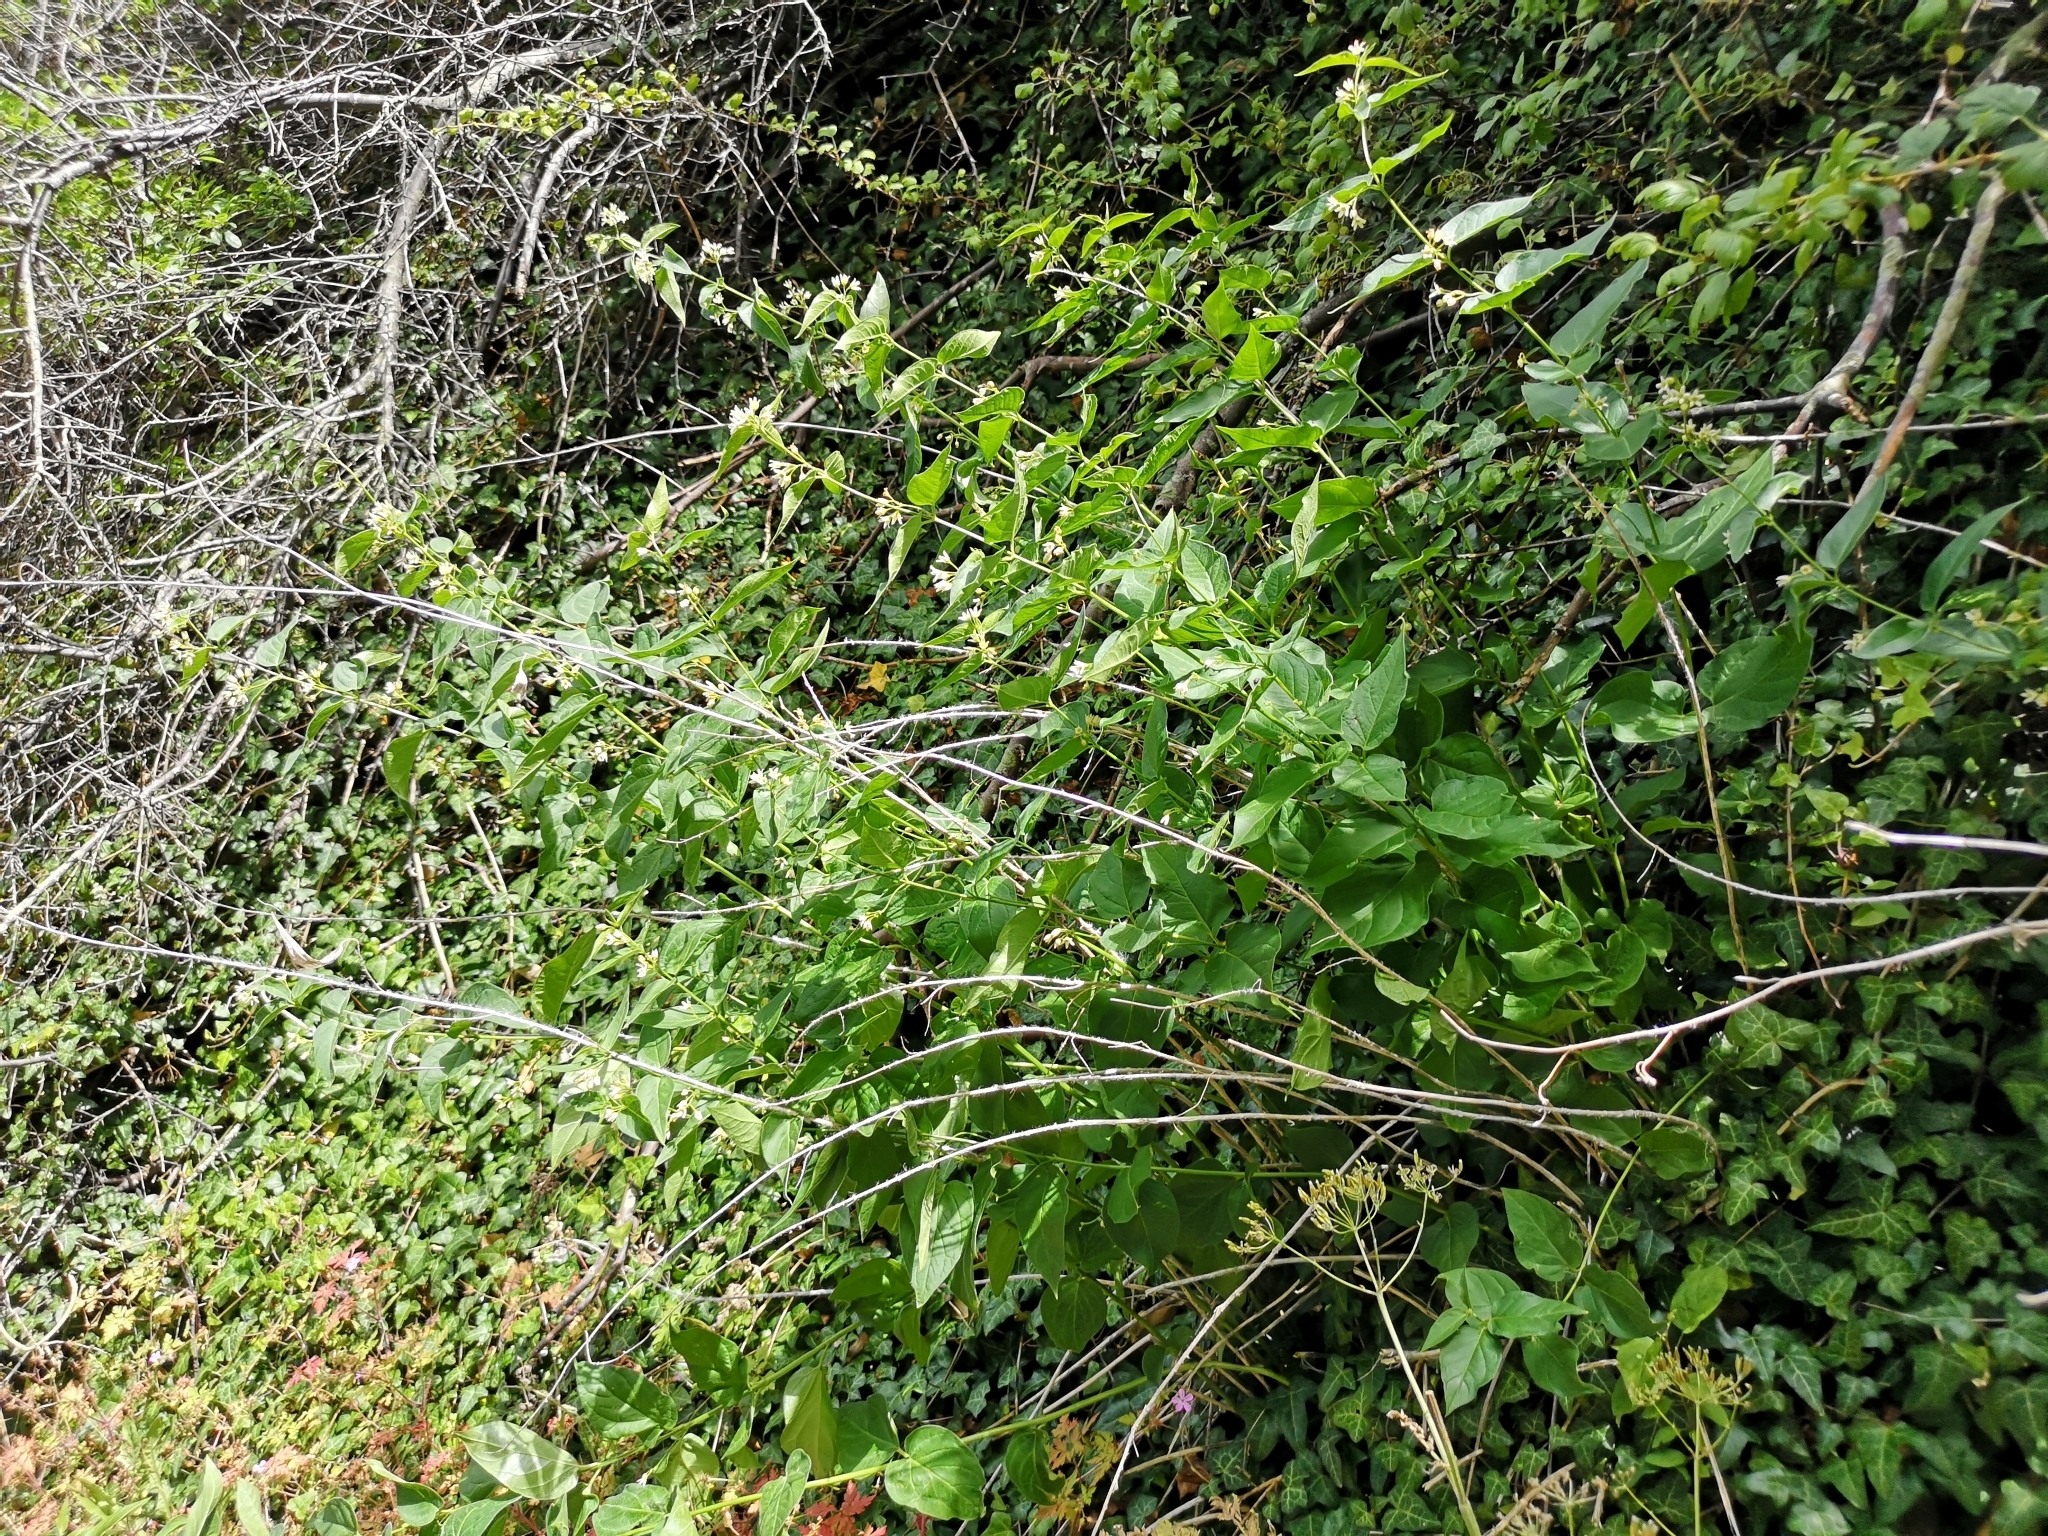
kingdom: Plantae
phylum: Tracheophyta
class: Magnoliopsida
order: Gentianales
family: Apocynaceae
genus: Vincetoxicum
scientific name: Vincetoxicum hirundinaria
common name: White swallowwort
